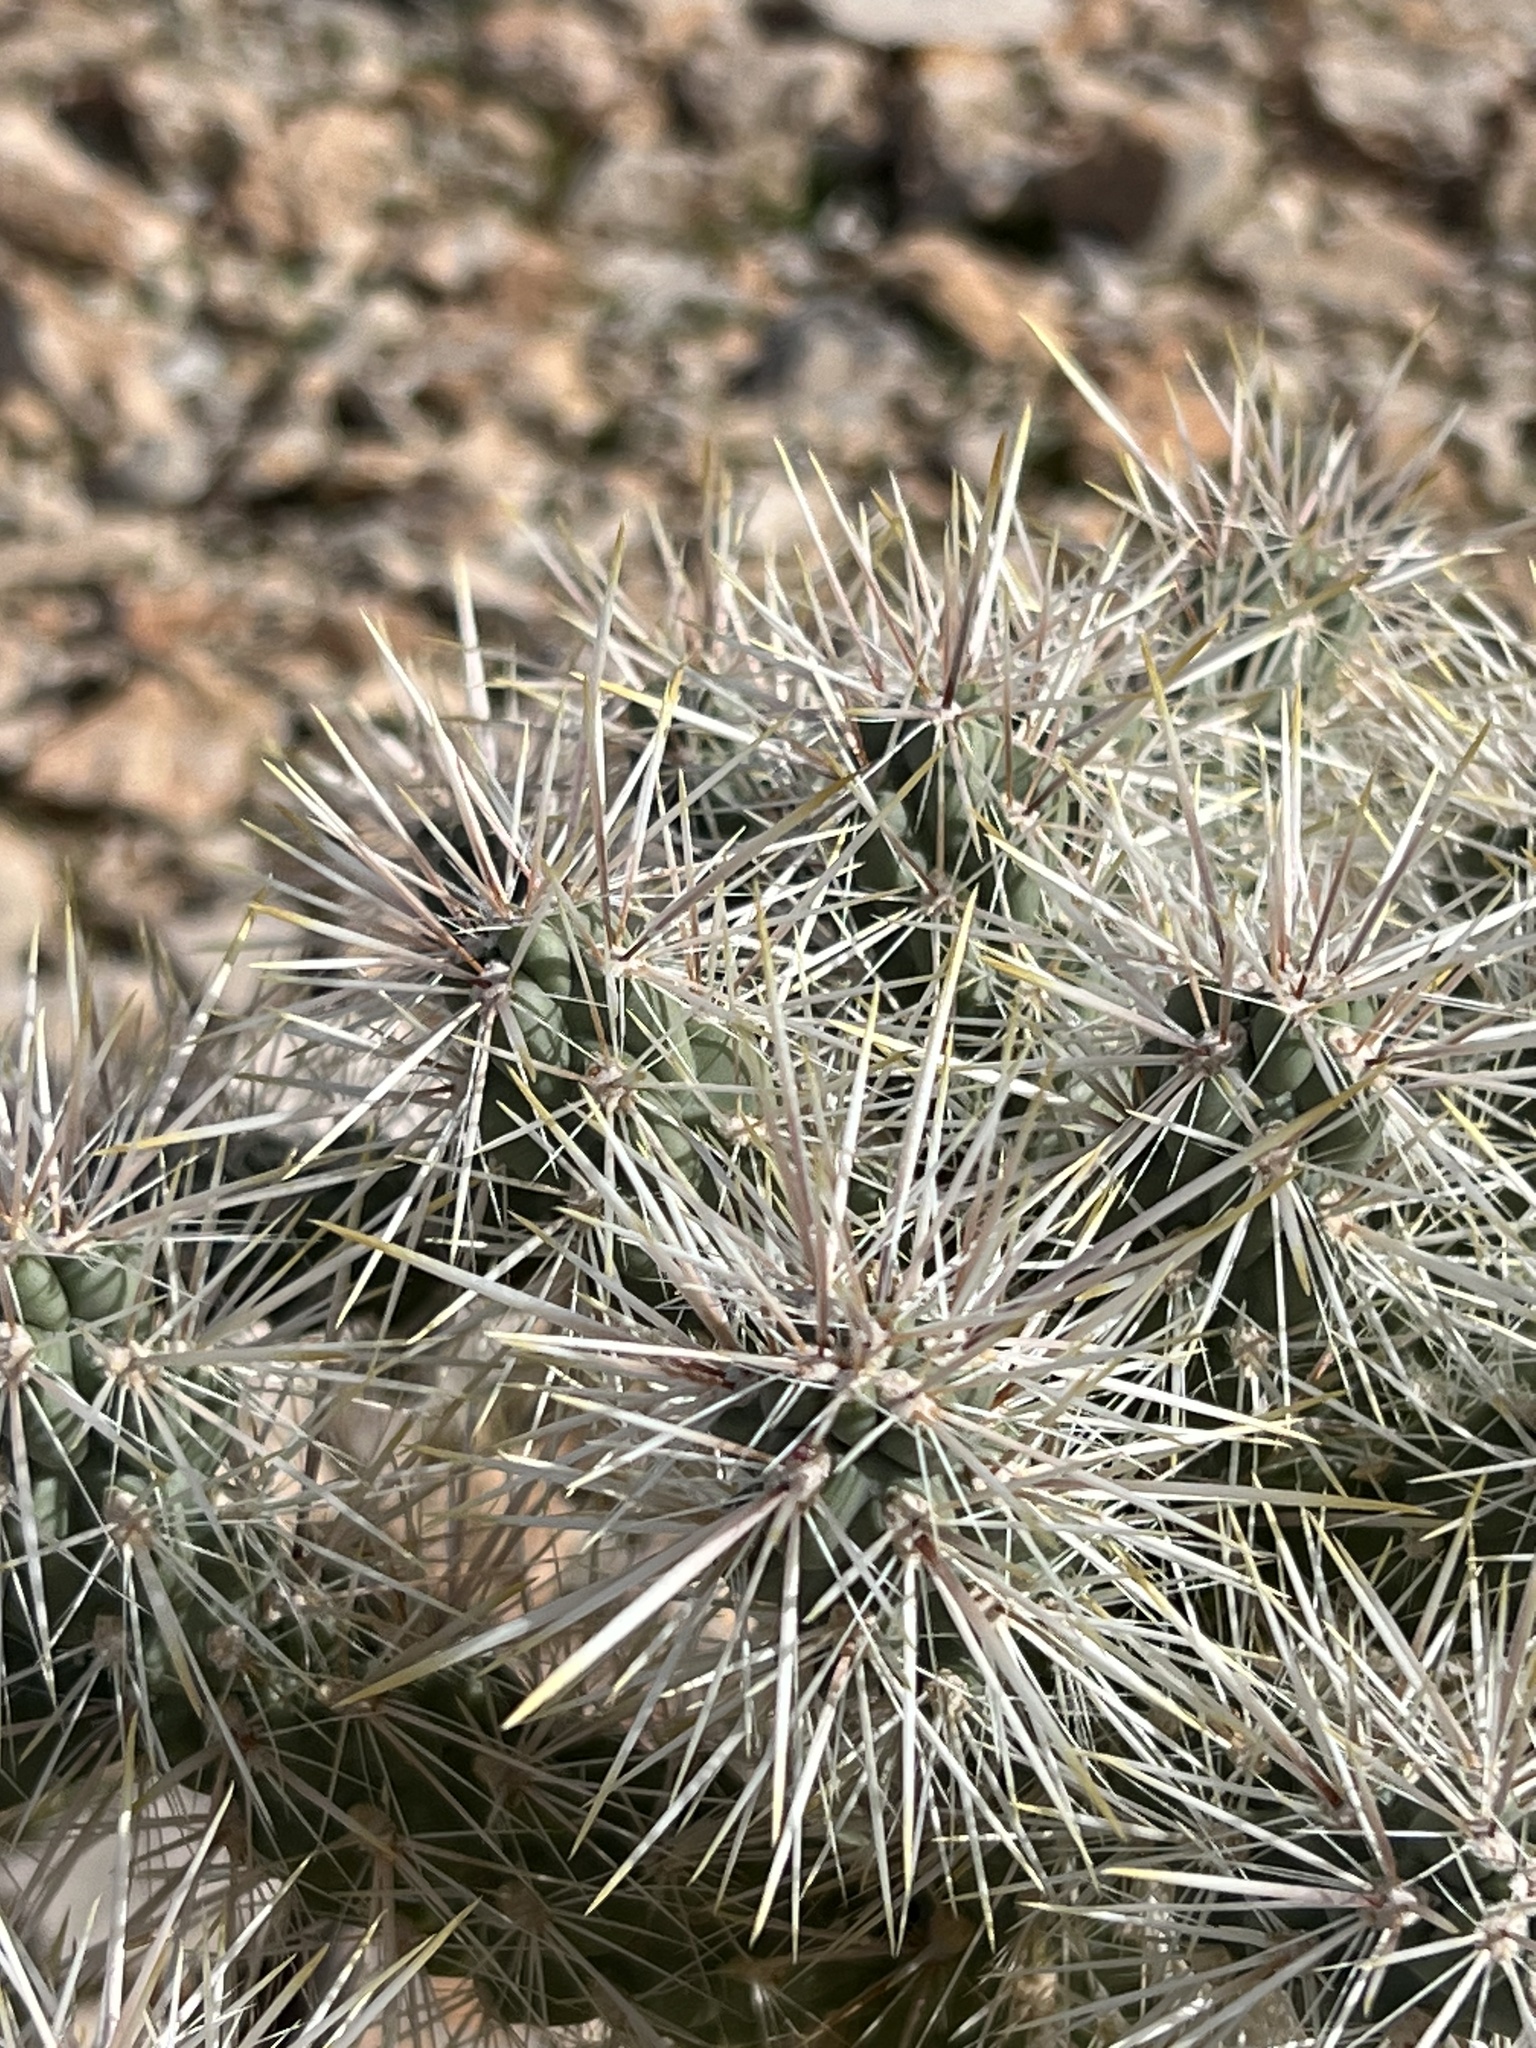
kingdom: Plantae
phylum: Tracheophyta
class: Magnoliopsida
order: Caryophyllales
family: Cactaceae
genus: Cylindropuntia
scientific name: Cylindropuntia echinocarpa
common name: Ground cholla
